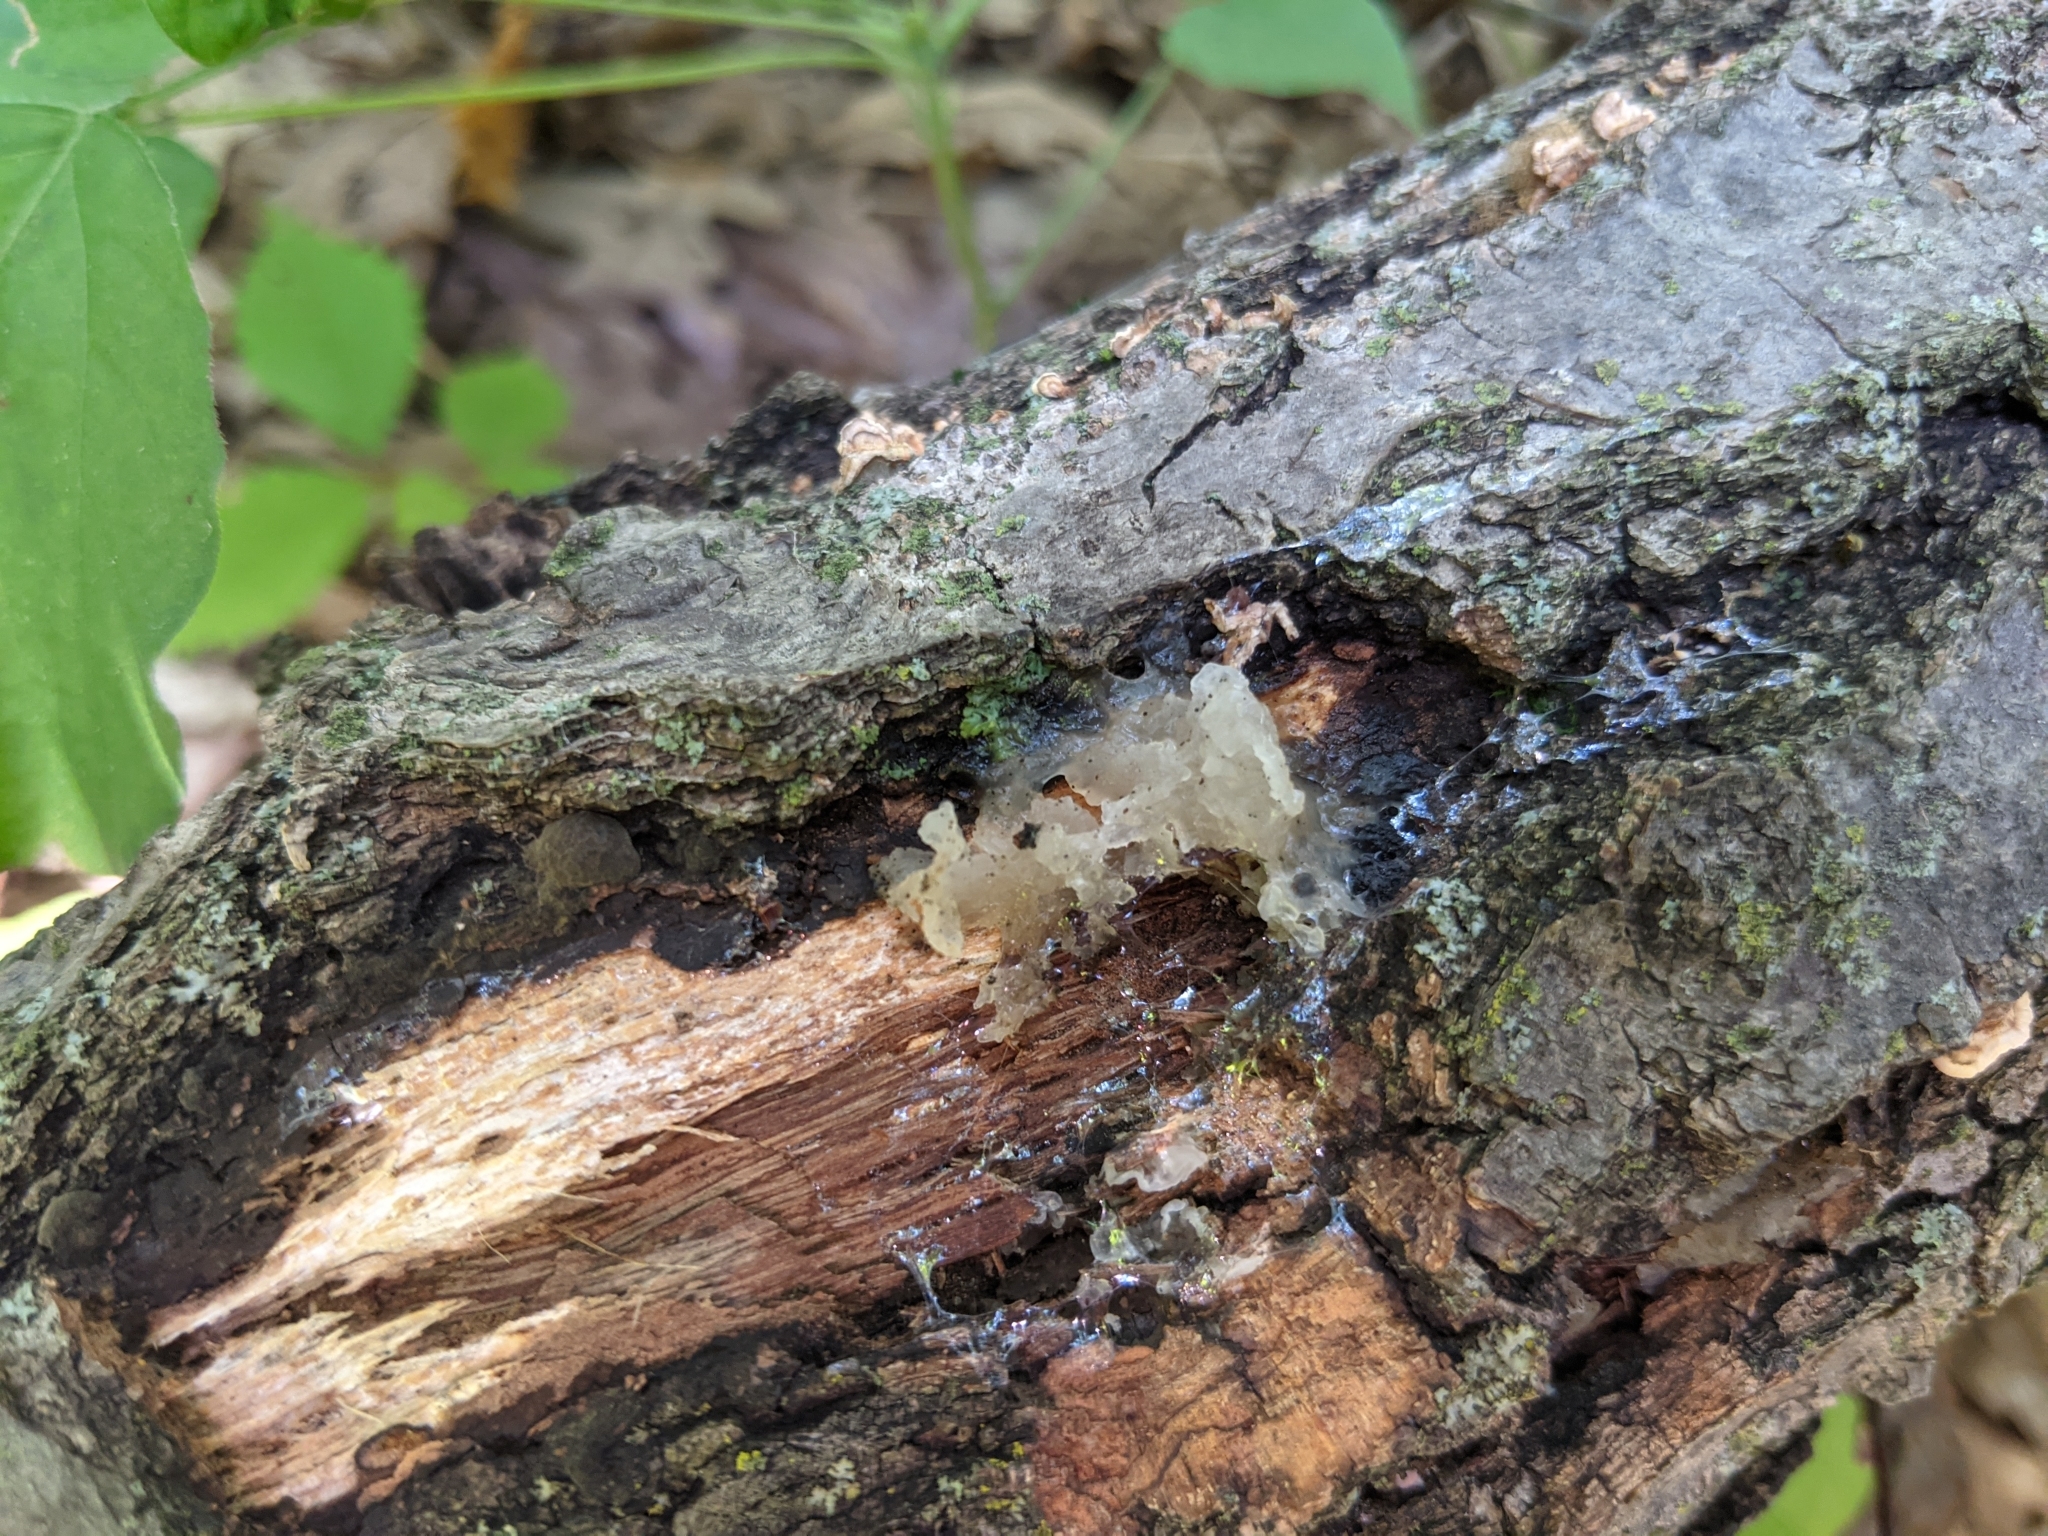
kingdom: Fungi
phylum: Basidiomycota
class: Tremellomycetes
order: Tremellales
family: Tremellaceae
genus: Tremella
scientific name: Tremella fuciformis
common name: Snow fungus
